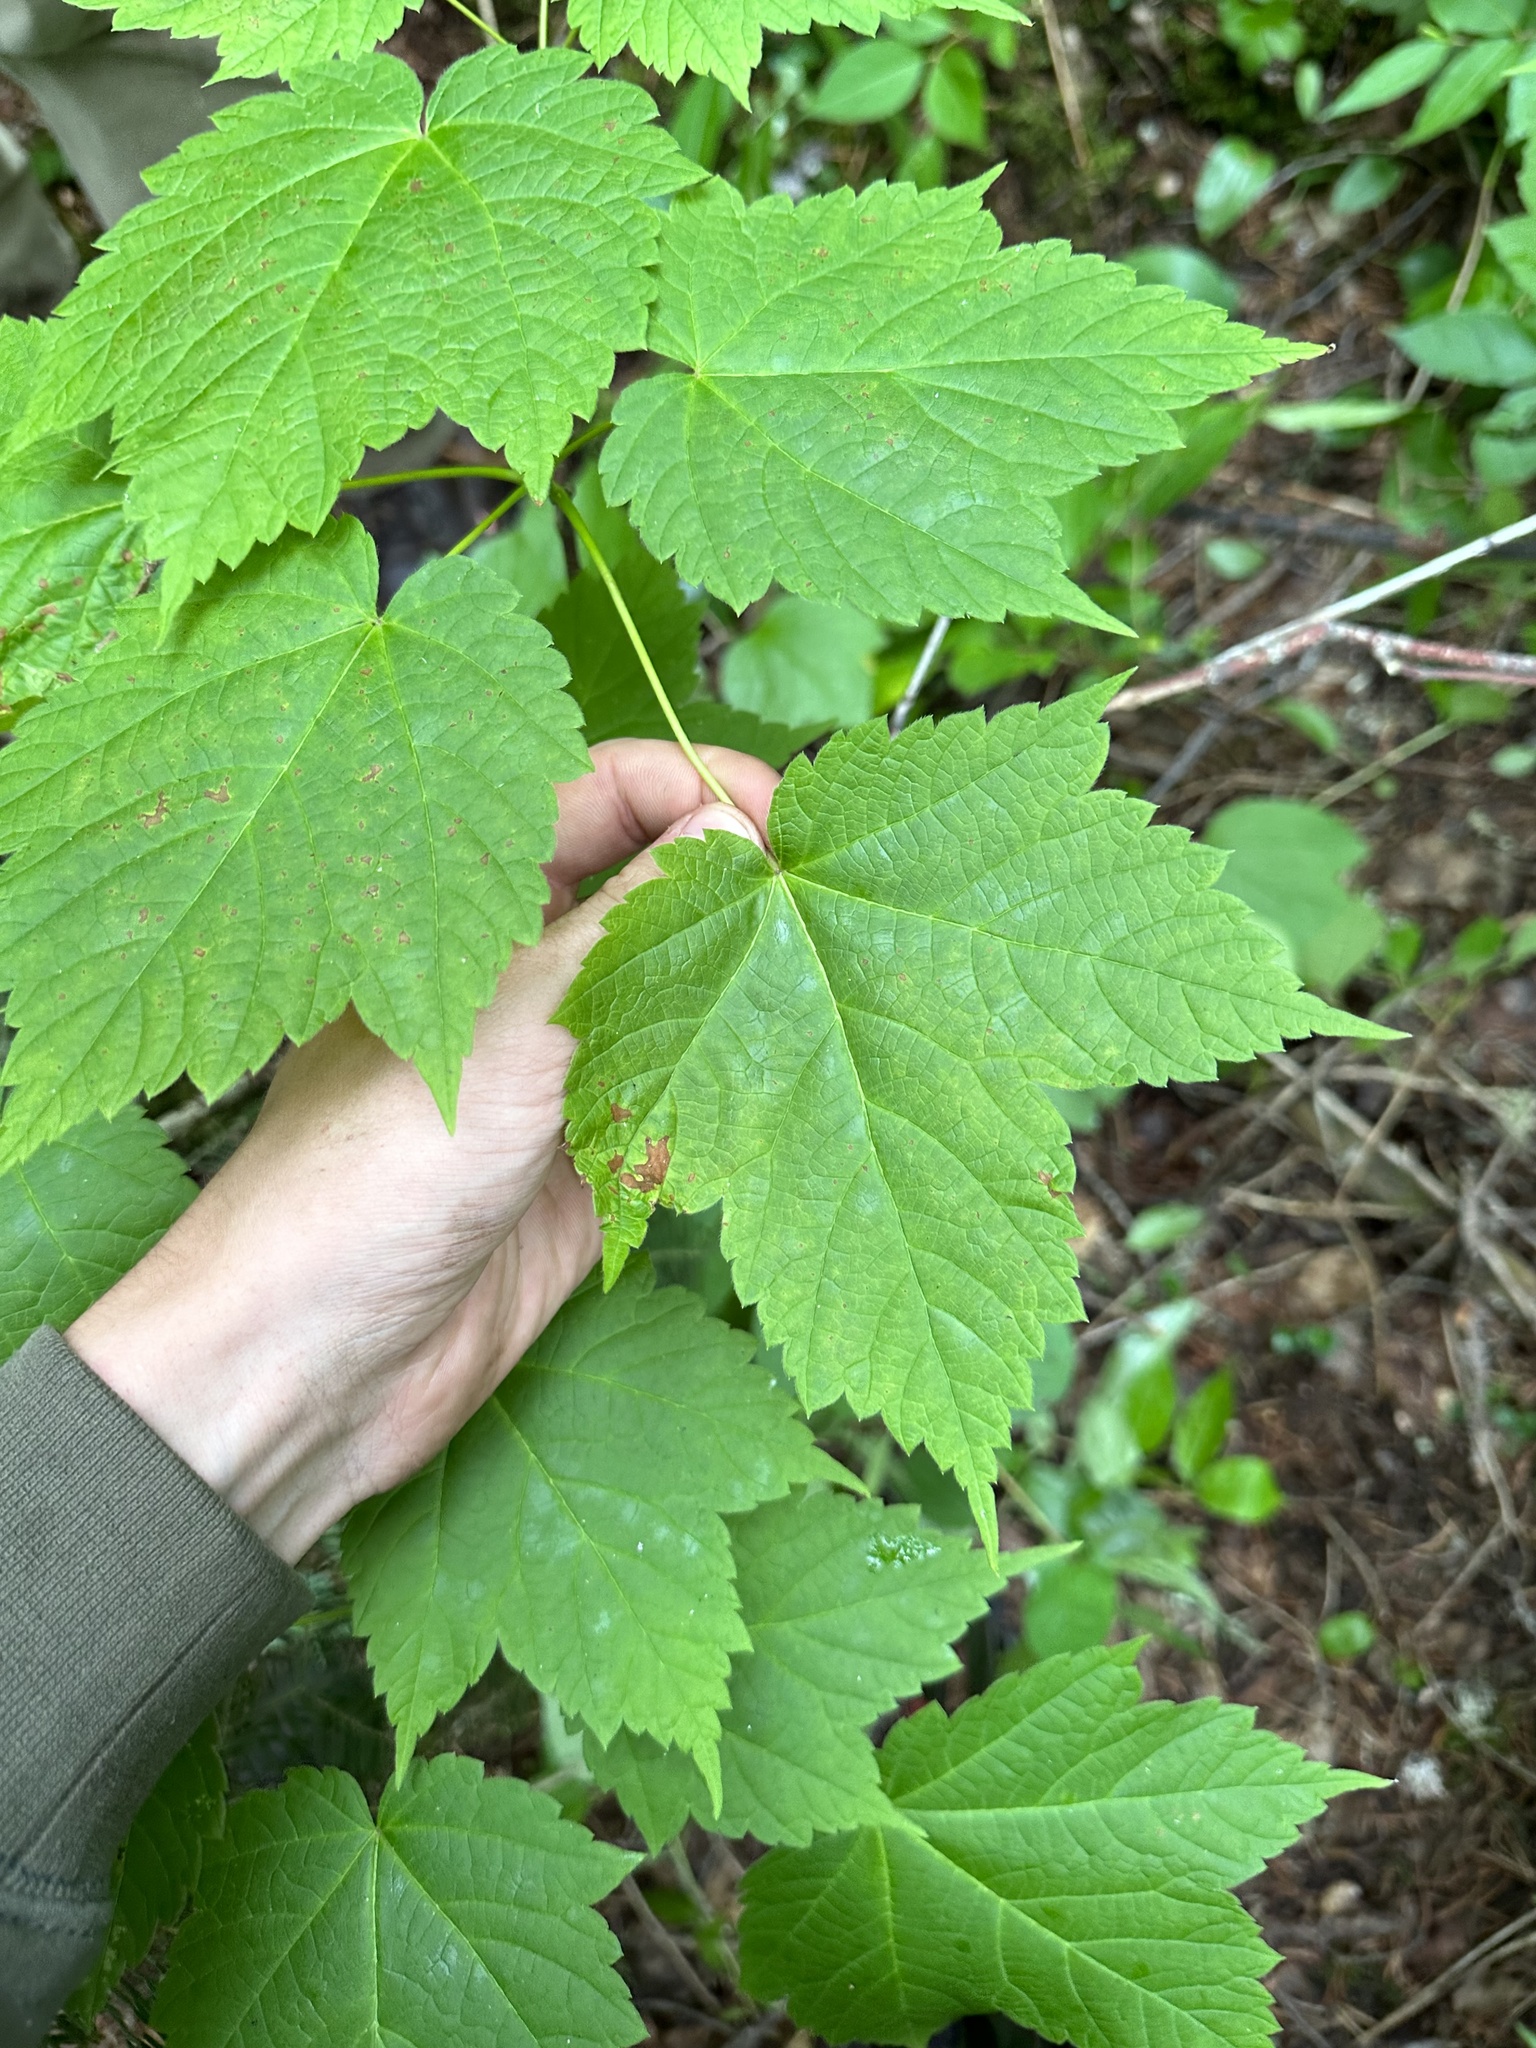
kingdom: Plantae
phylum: Tracheophyta
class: Magnoliopsida
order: Sapindales
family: Sapindaceae
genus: Acer
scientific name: Acer spicatum
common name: Mountain maple
